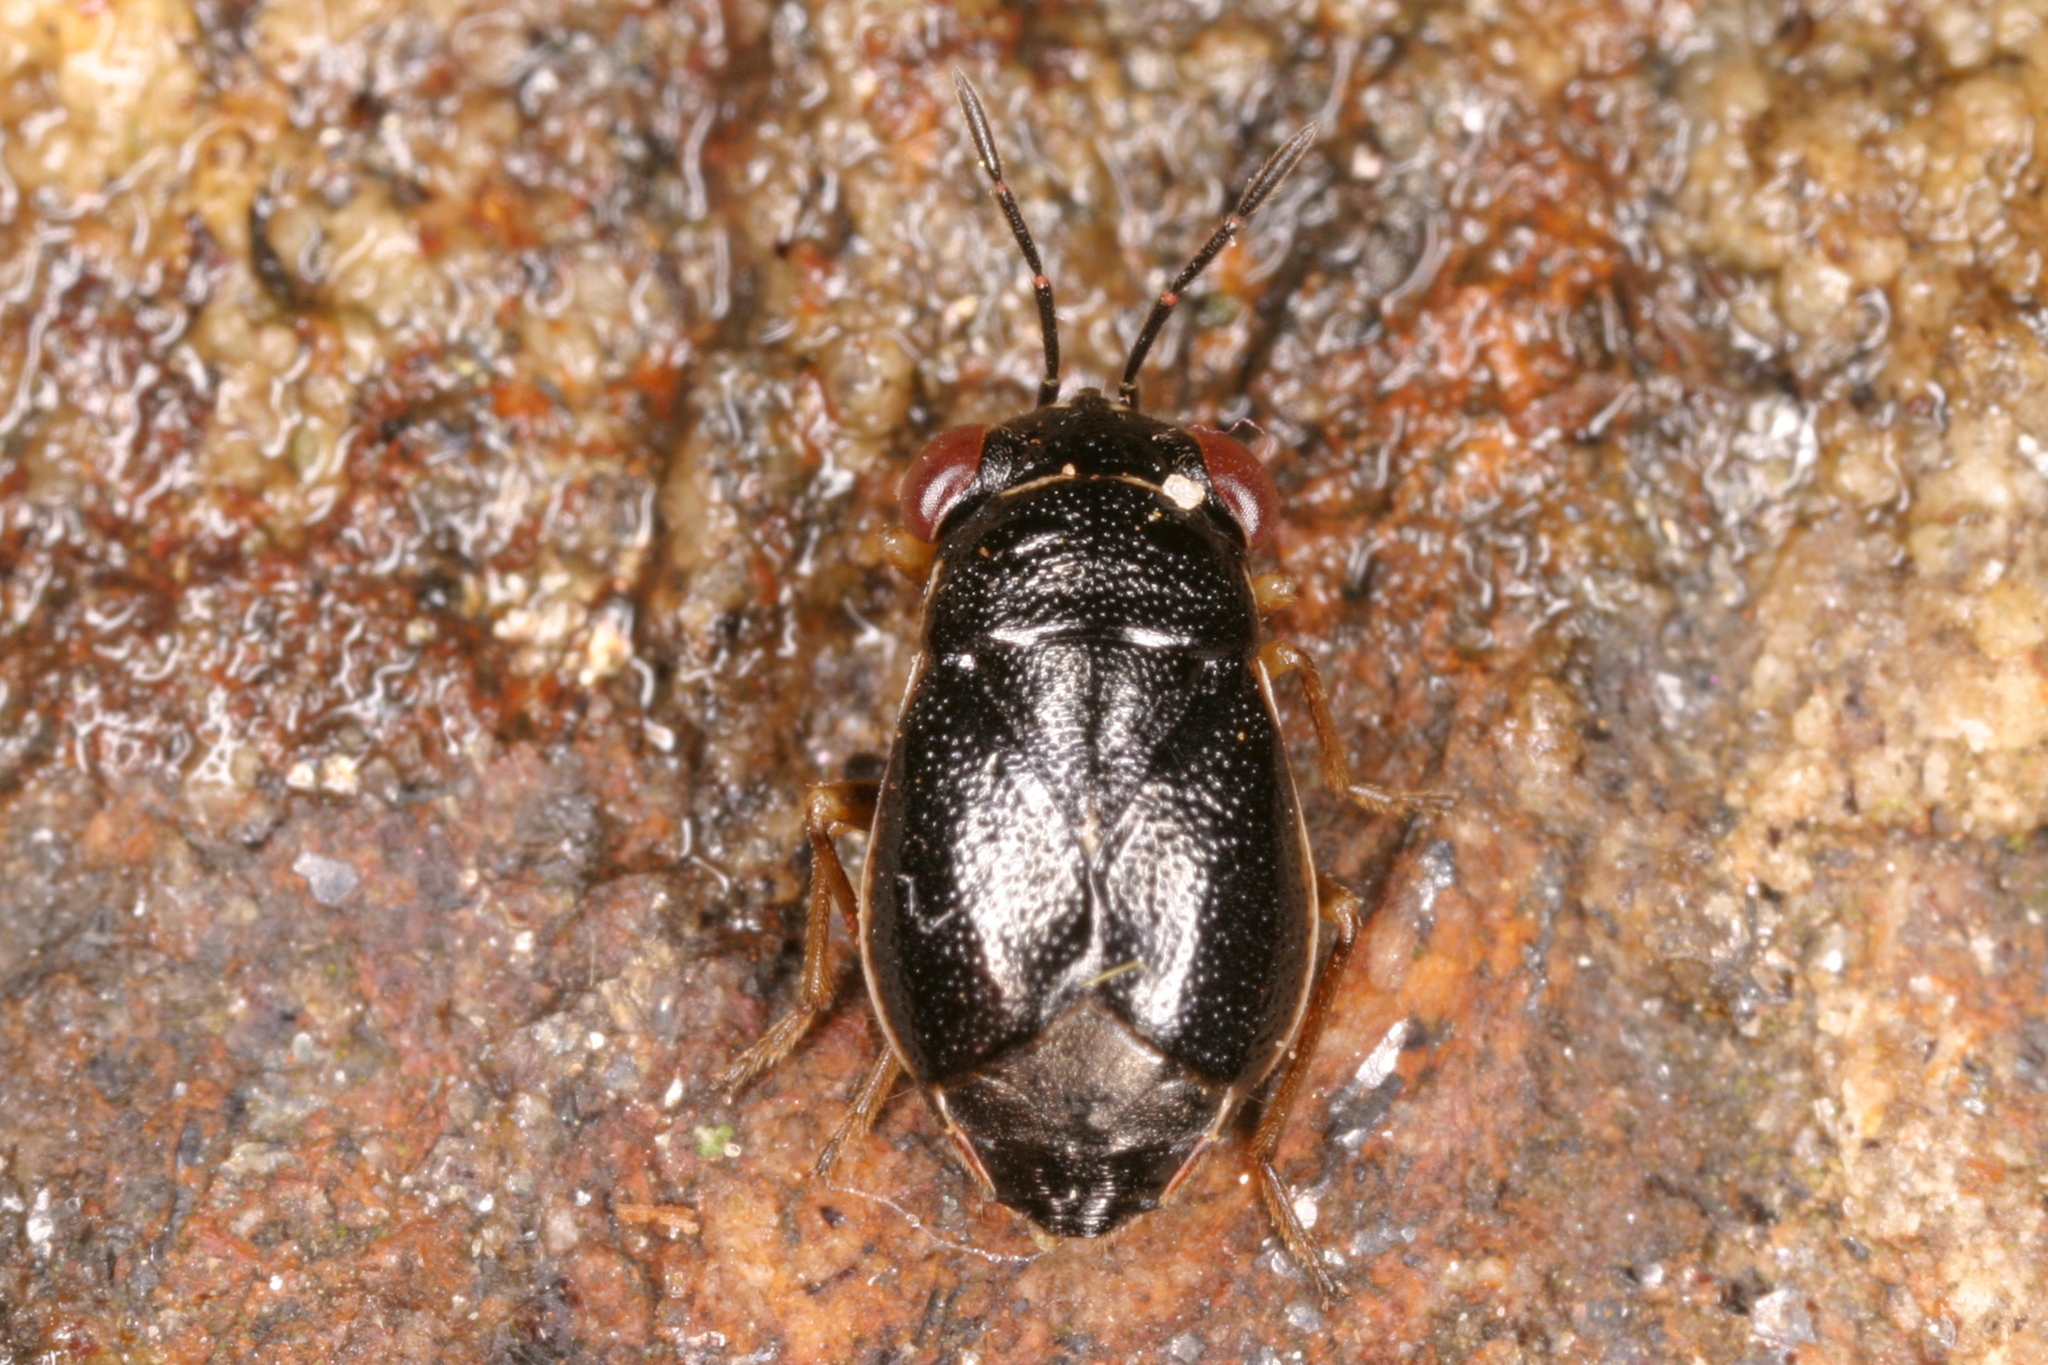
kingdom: Animalia
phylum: Arthropoda
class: Insecta
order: Hemiptera
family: Geocoridae
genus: Geocoris
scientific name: Geocoris dispar
